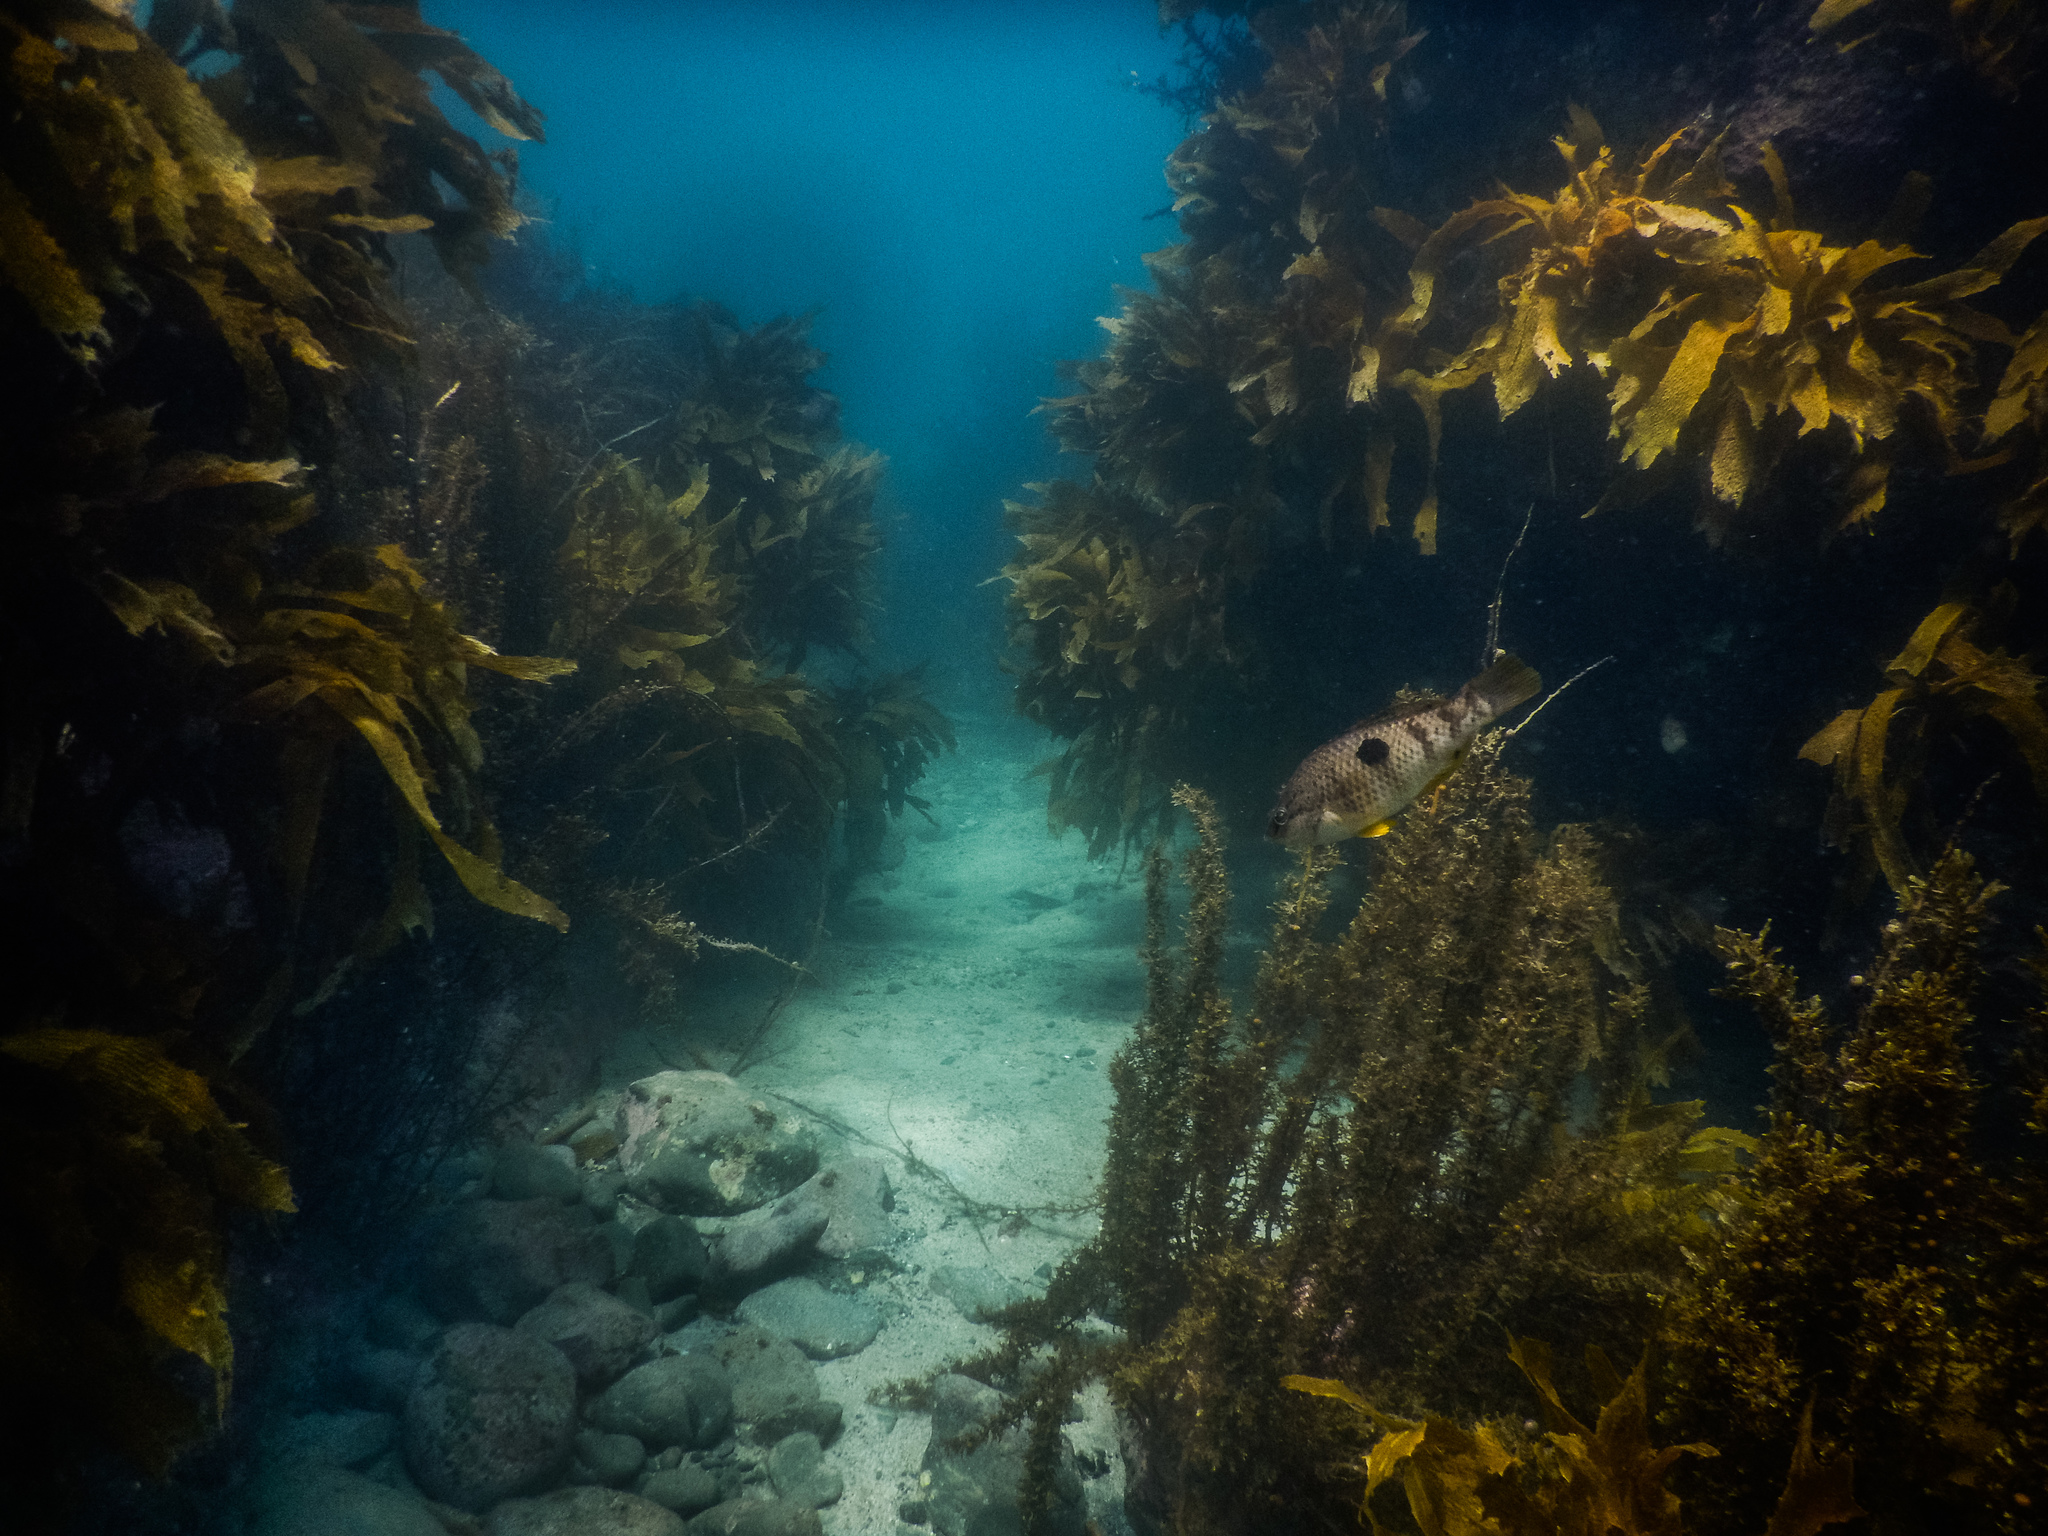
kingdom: Animalia
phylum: Chordata
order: Perciformes
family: Labridae
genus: Notolabrus
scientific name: Notolabrus celidotus
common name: Spotty
